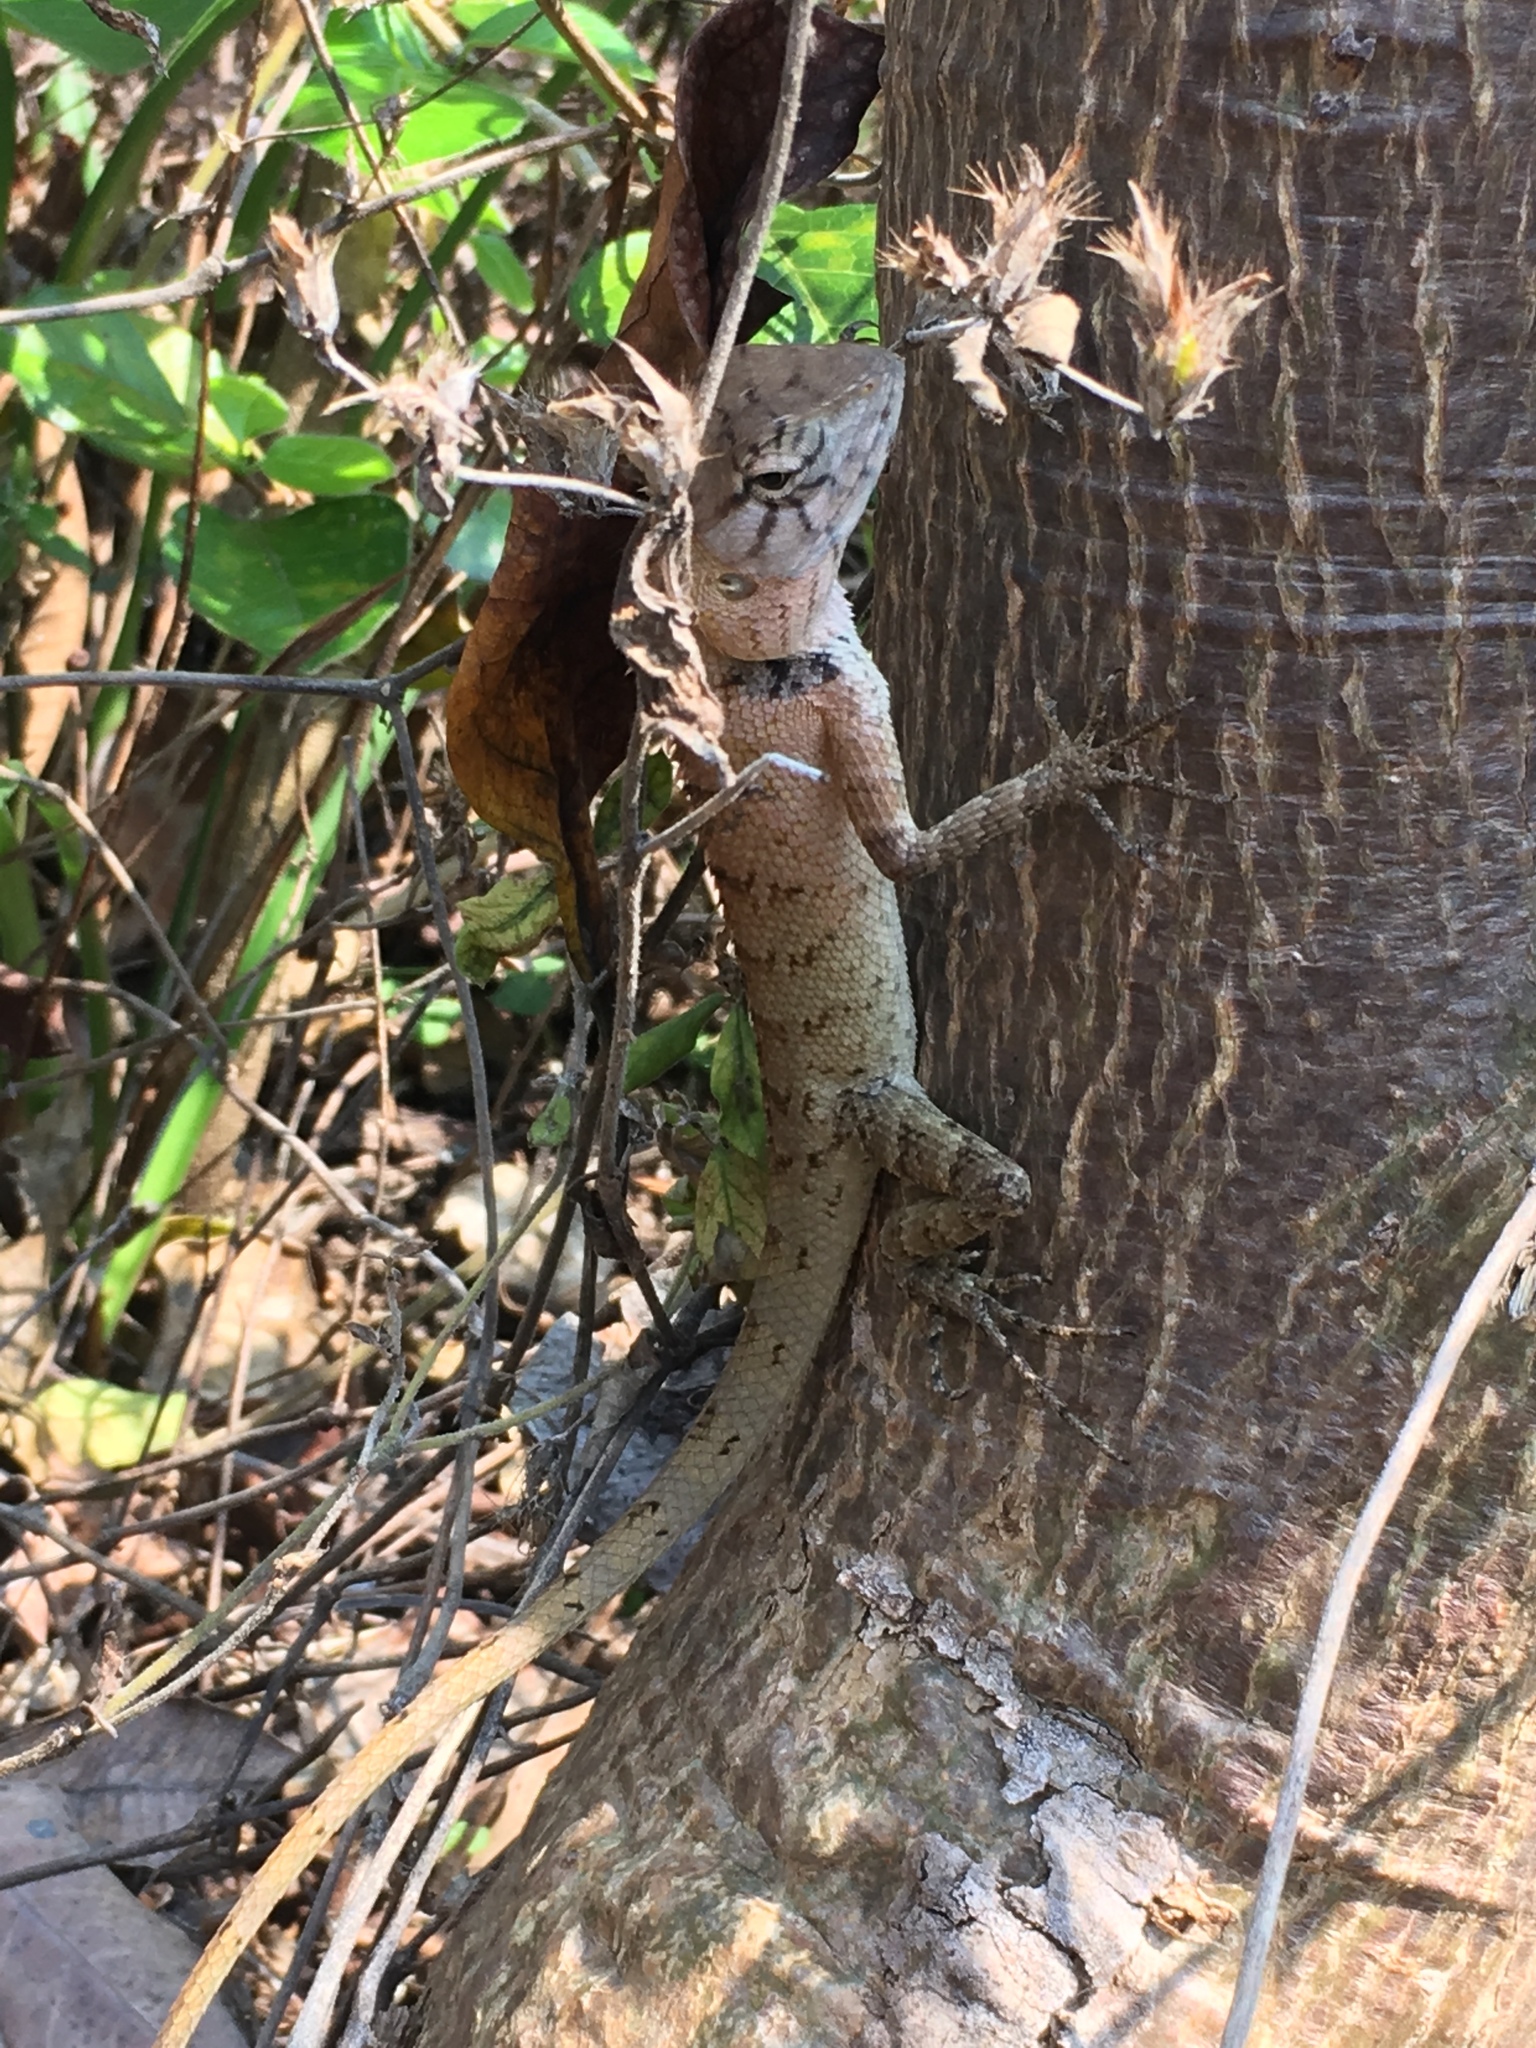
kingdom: Animalia
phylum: Chordata
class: Squamata
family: Agamidae
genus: Calotes
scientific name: Calotes versicolor
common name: Oriental garden lizard
